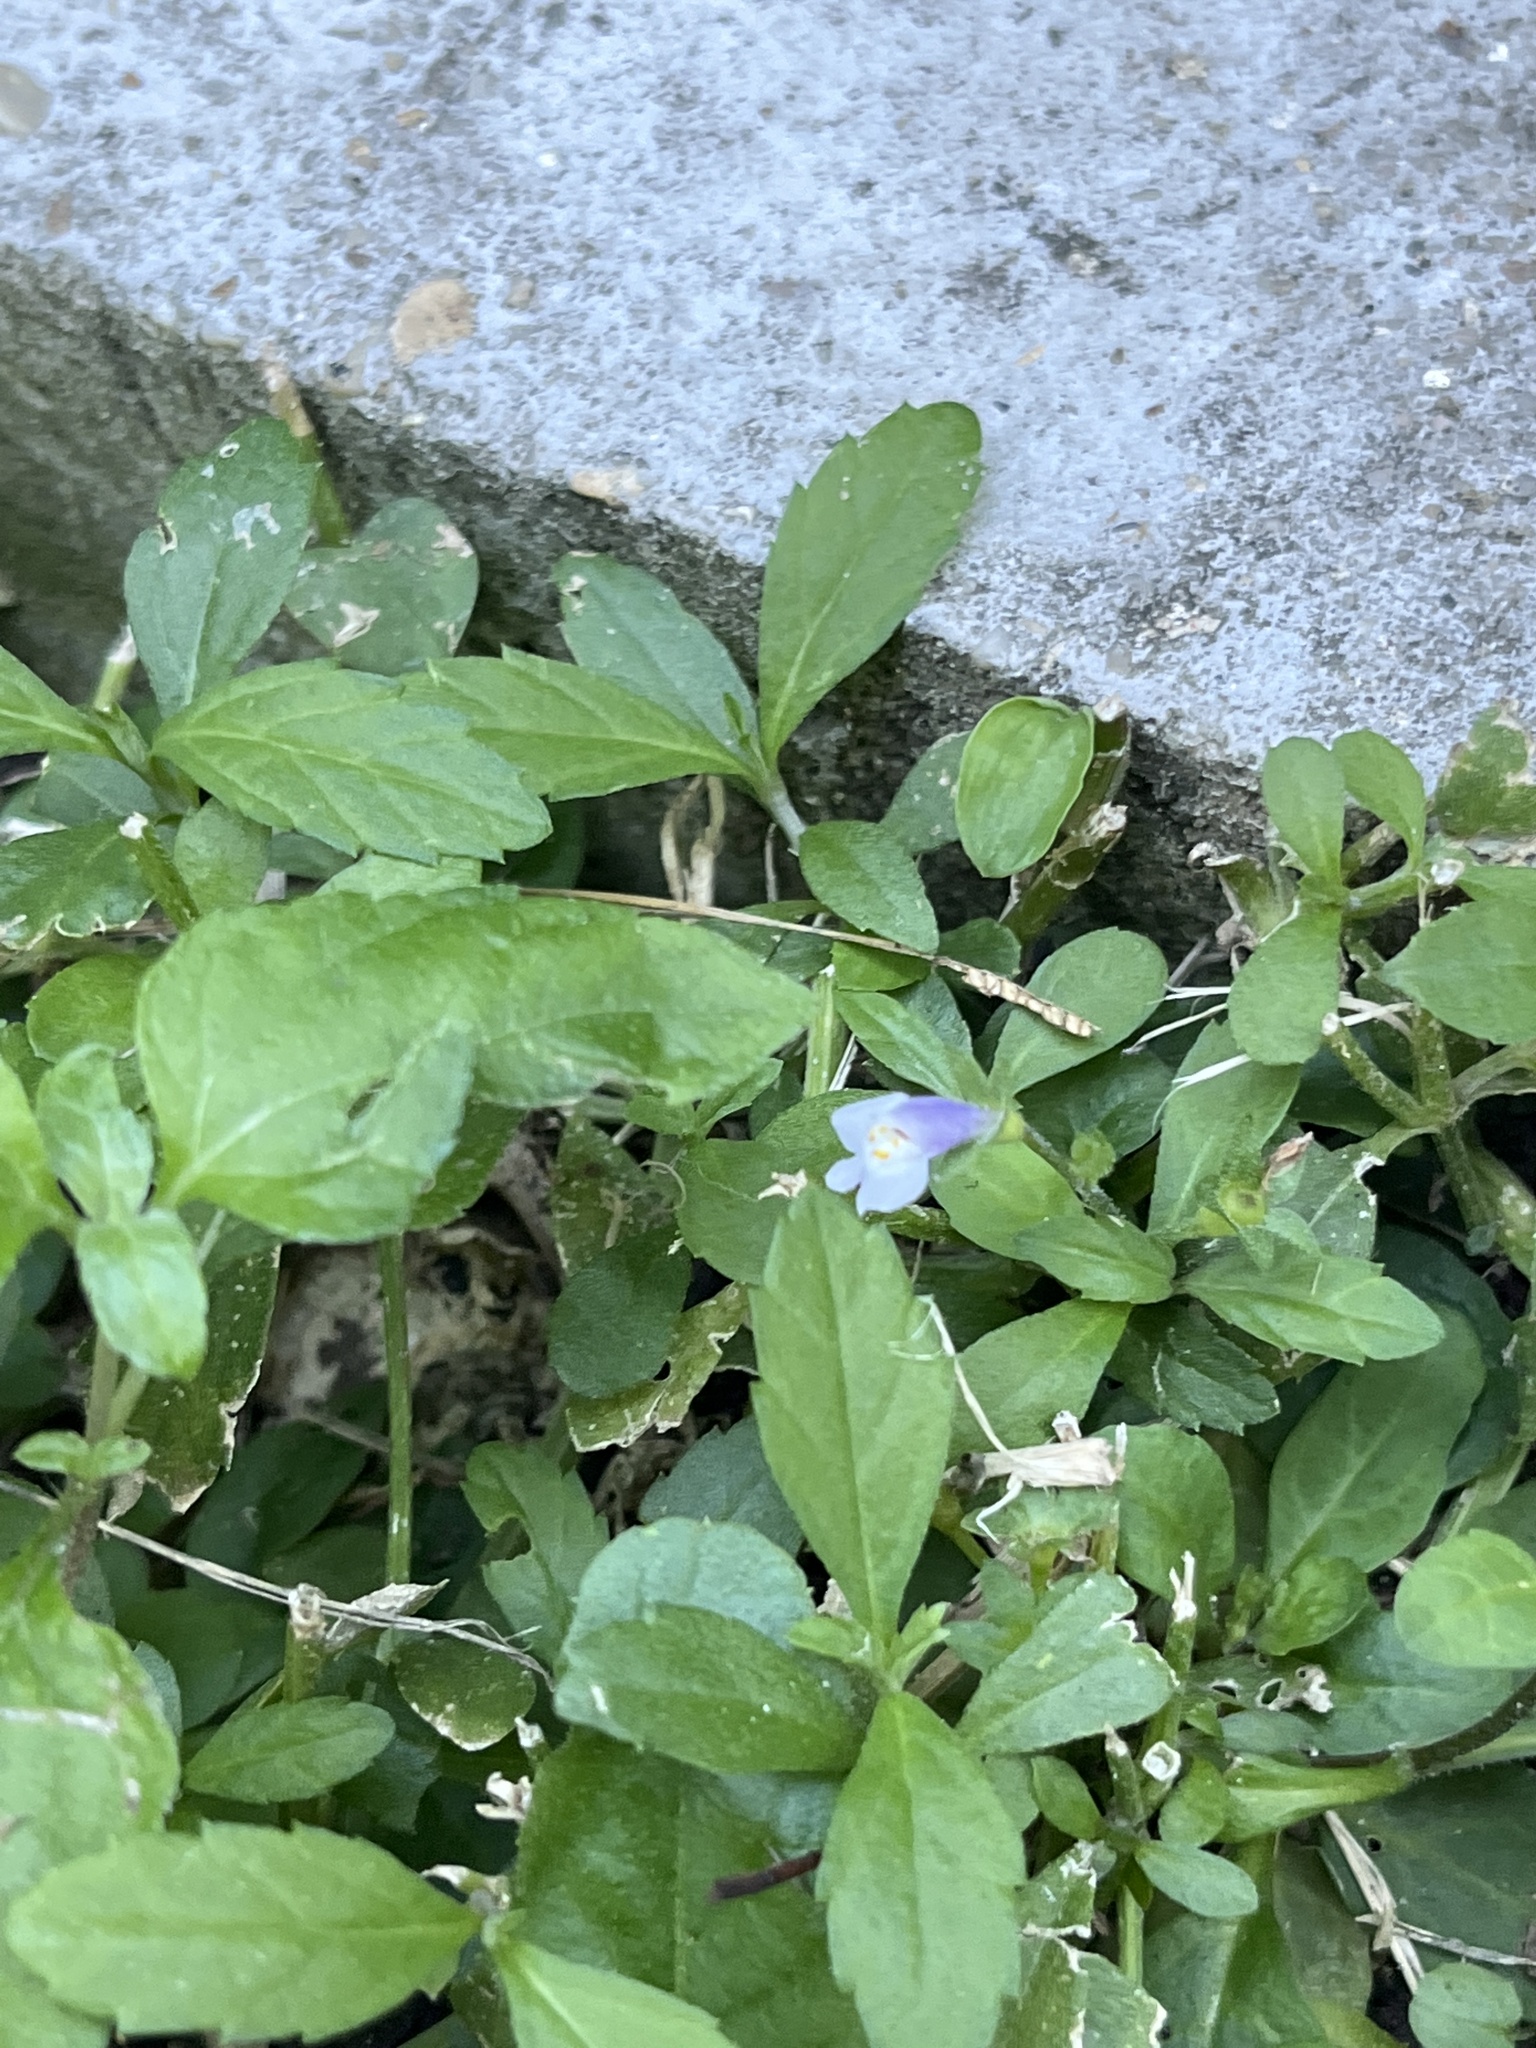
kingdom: Plantae
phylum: Tracheophyta
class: Magnoliopsida
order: Lamiales
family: Mazaceae
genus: Mazus
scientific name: Mazus pumilus
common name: Japanese mazus
